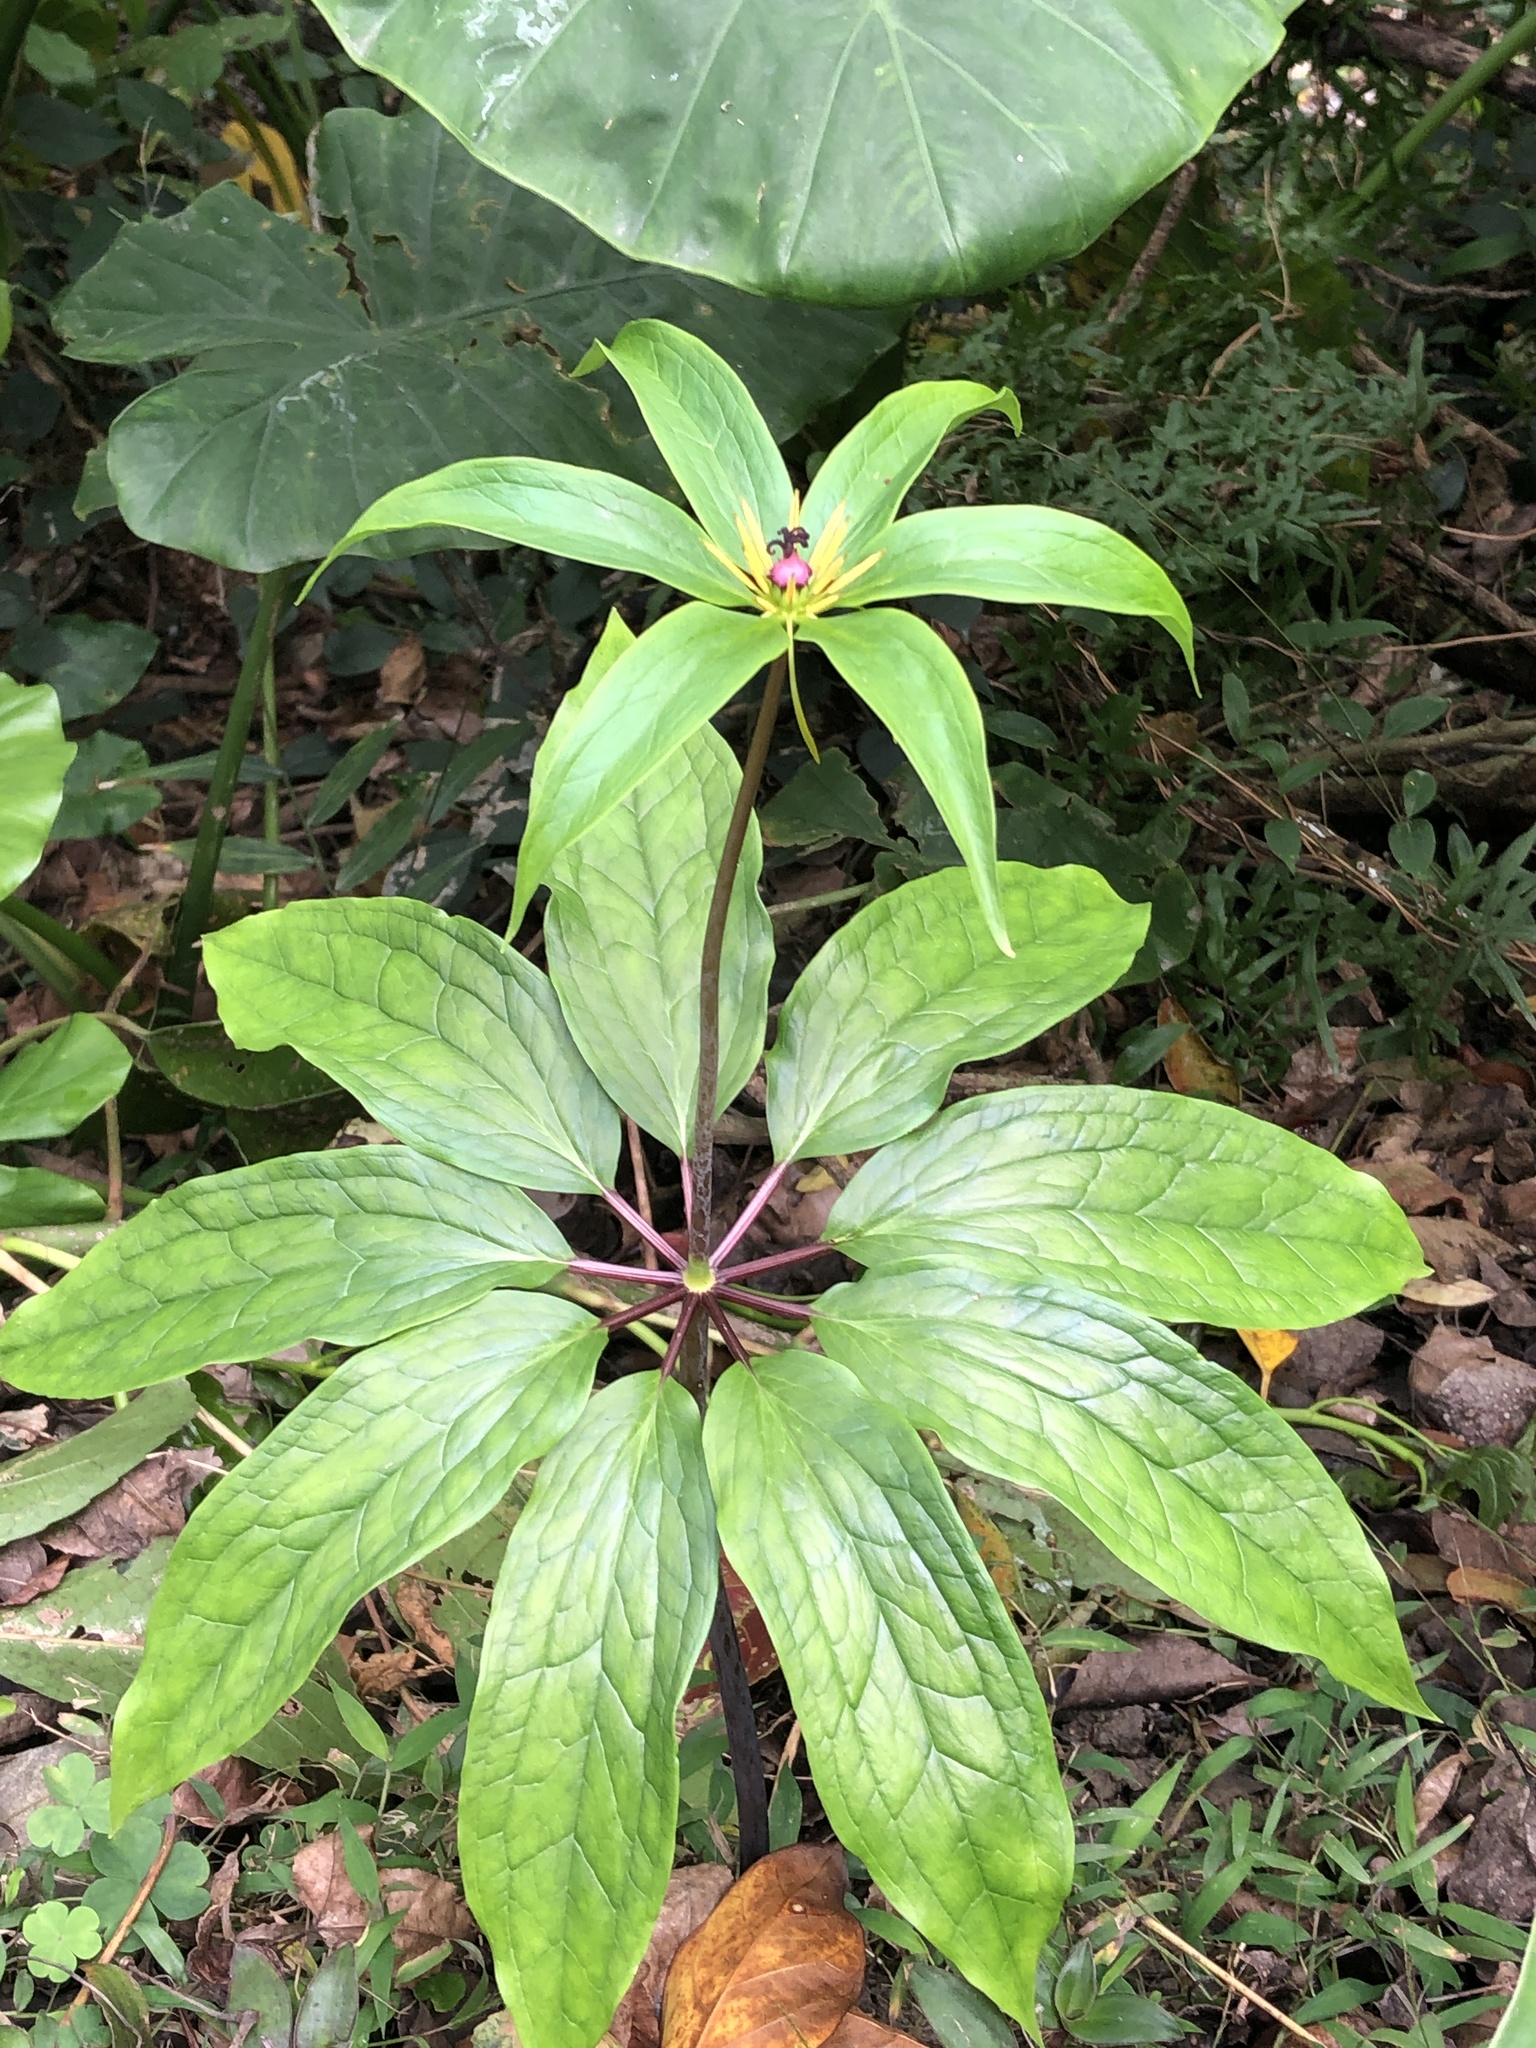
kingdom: Plantae
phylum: Tracheophyta
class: Liliopsida
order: Liliales
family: Melanthiaceae
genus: Paris
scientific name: Paris polyphylla
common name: Love apple
